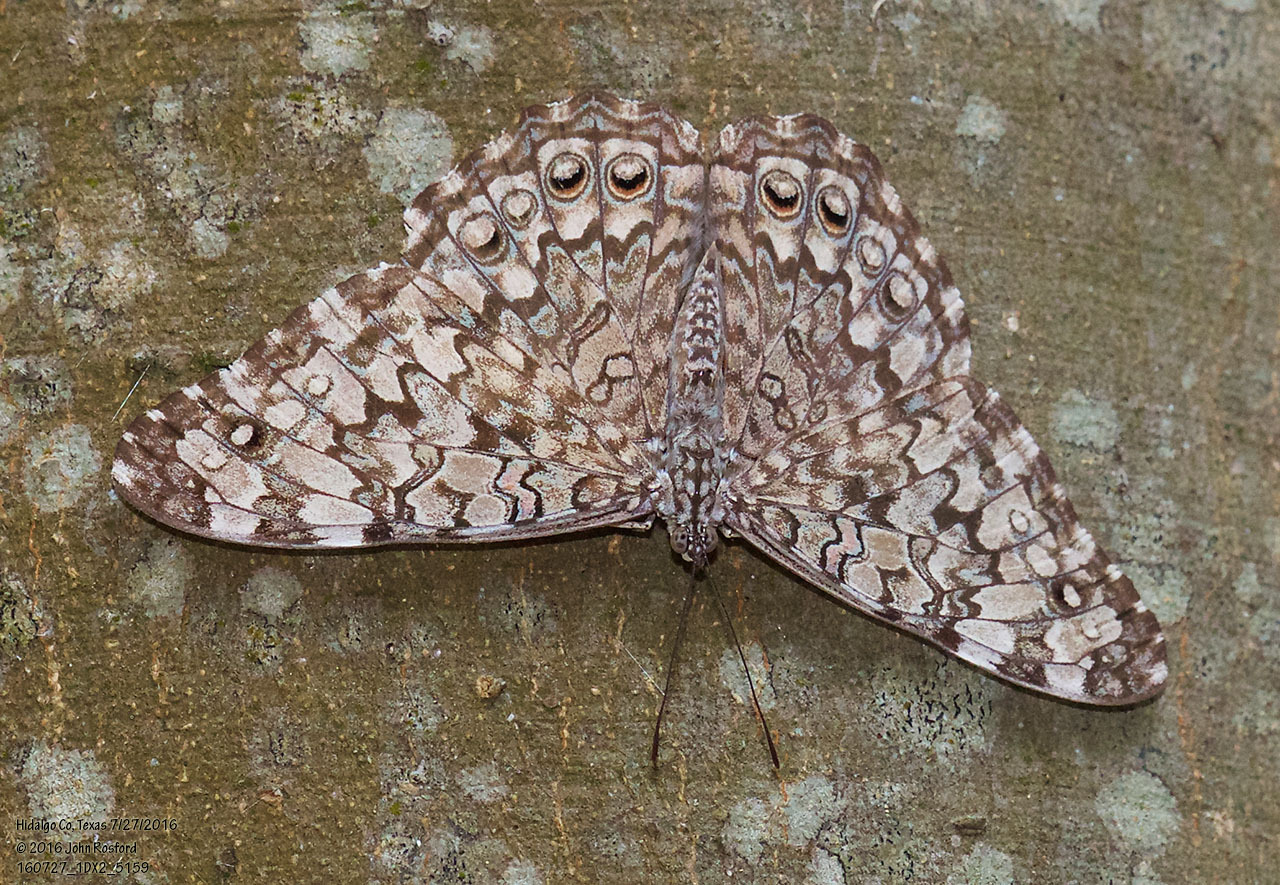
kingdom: Animalia
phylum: Arthropoda
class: Insecta
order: Lepidoptera
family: Nymphalidae
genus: Hamadryas
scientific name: Hamadryas februa
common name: Gray cracker
